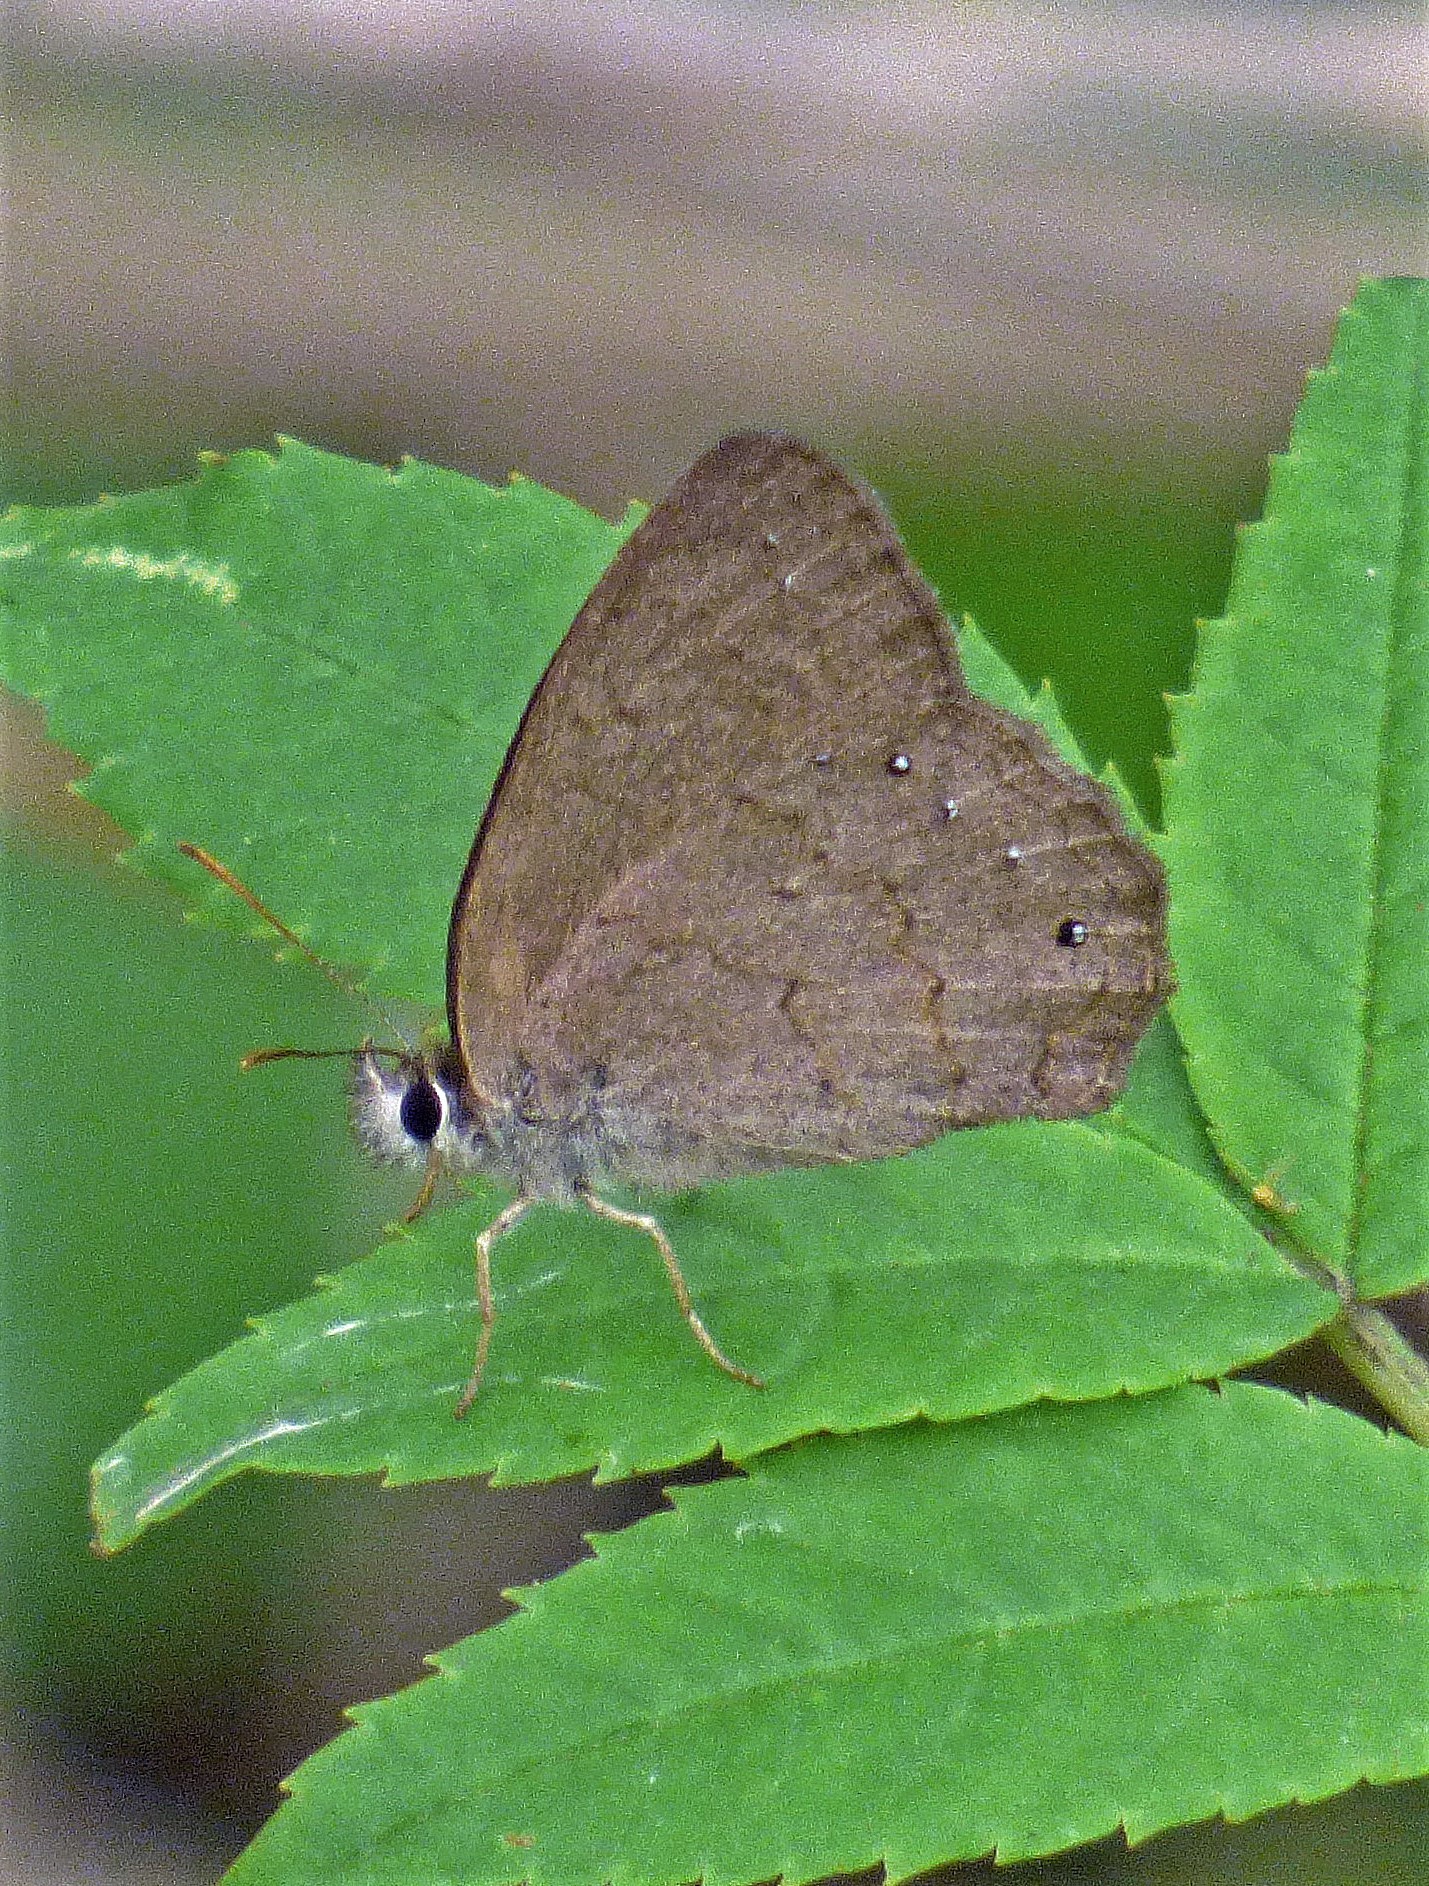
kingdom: Animalia
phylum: Arthropoda
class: Insecta
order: Lepidoptera
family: Nymphalidae
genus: Euptychia
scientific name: Euptychia
